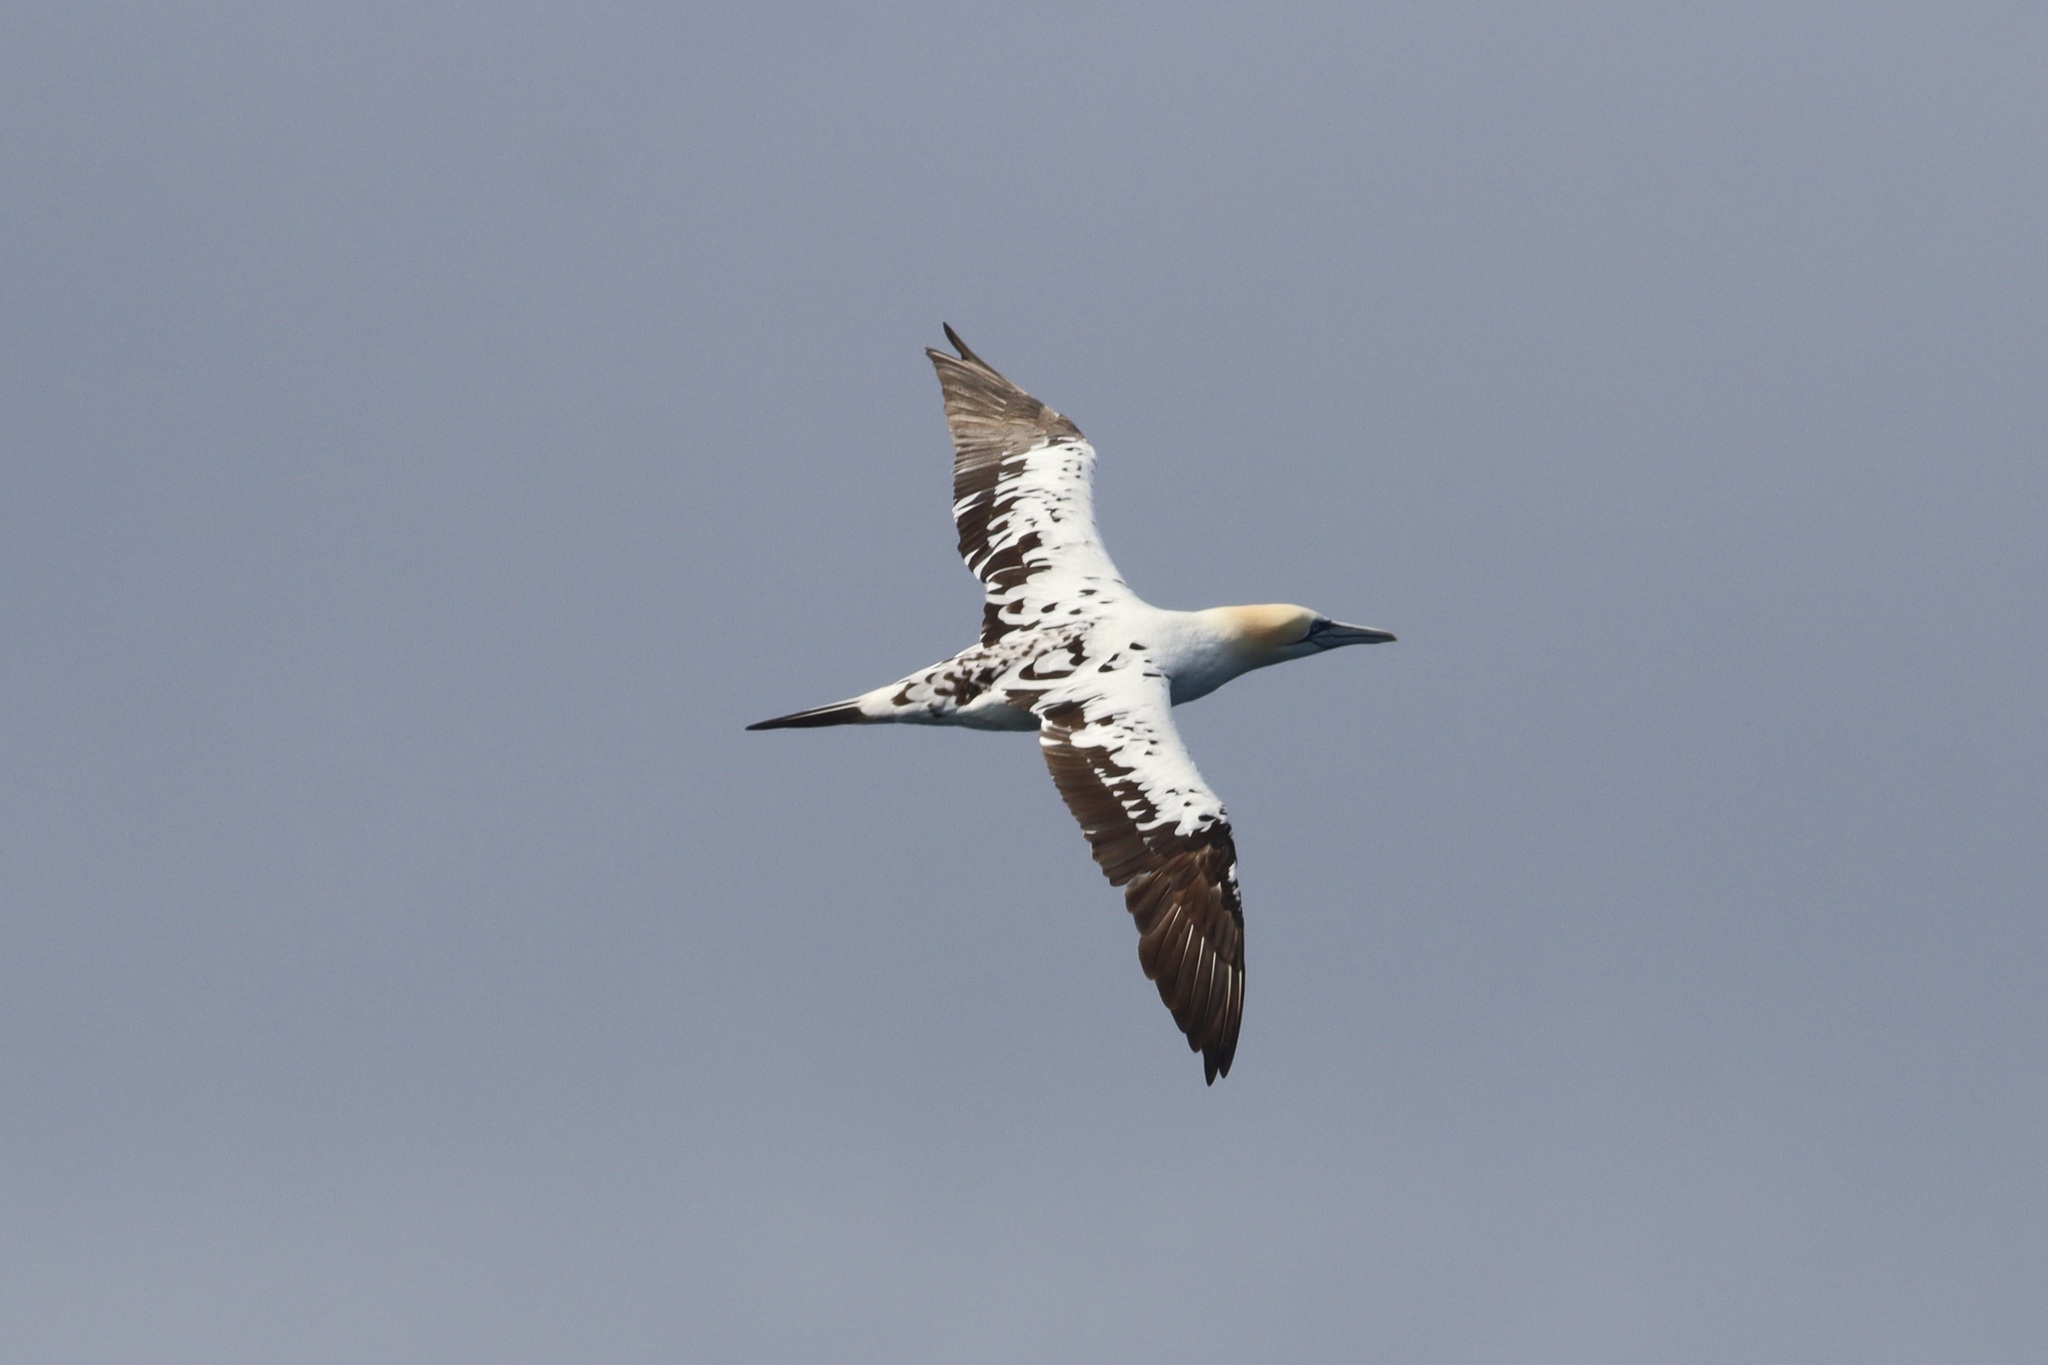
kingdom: Animalia
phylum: Chordata
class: Aves
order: Suliformes
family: Sulidae
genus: Morus
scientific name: Morus bassanus
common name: Northern gannet
